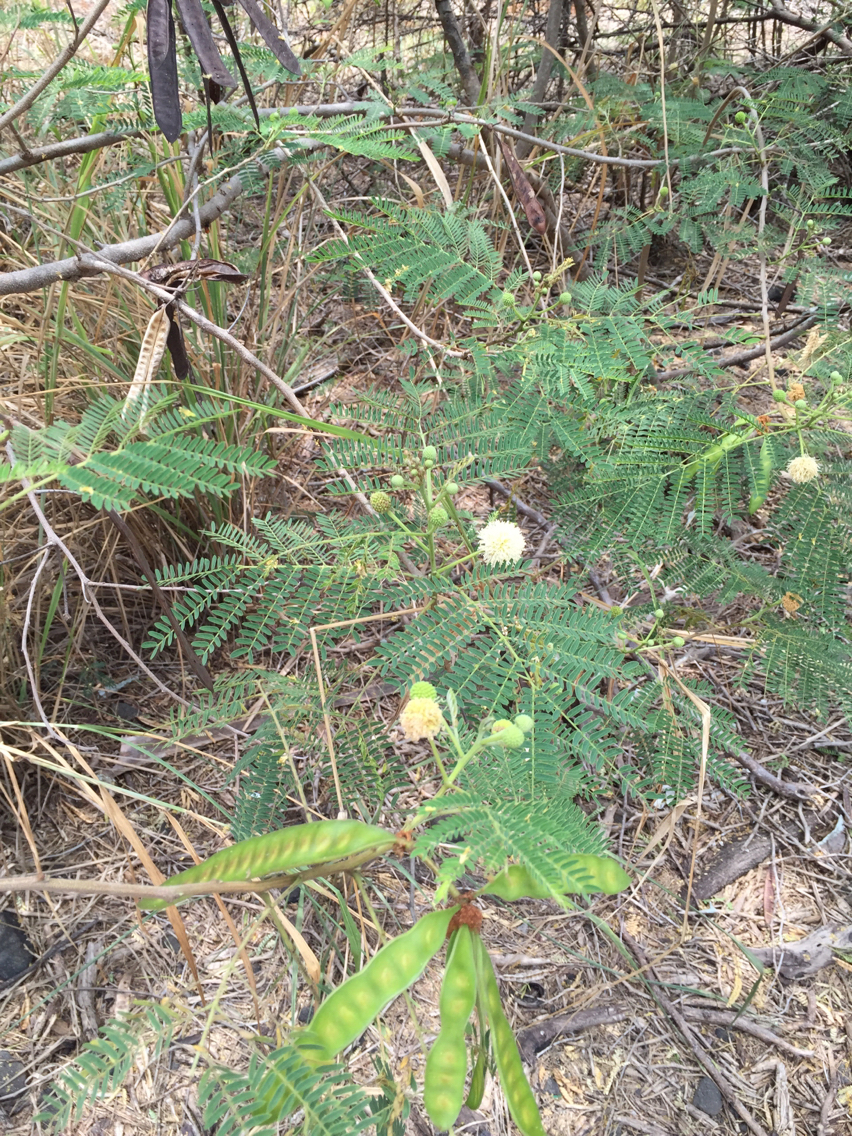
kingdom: Plantae
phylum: Tracheophyta
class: Magnoliopsida
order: Fabales
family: Fabaceae
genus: Leucaena
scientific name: Leucaena leucocephala
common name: White leadtree
